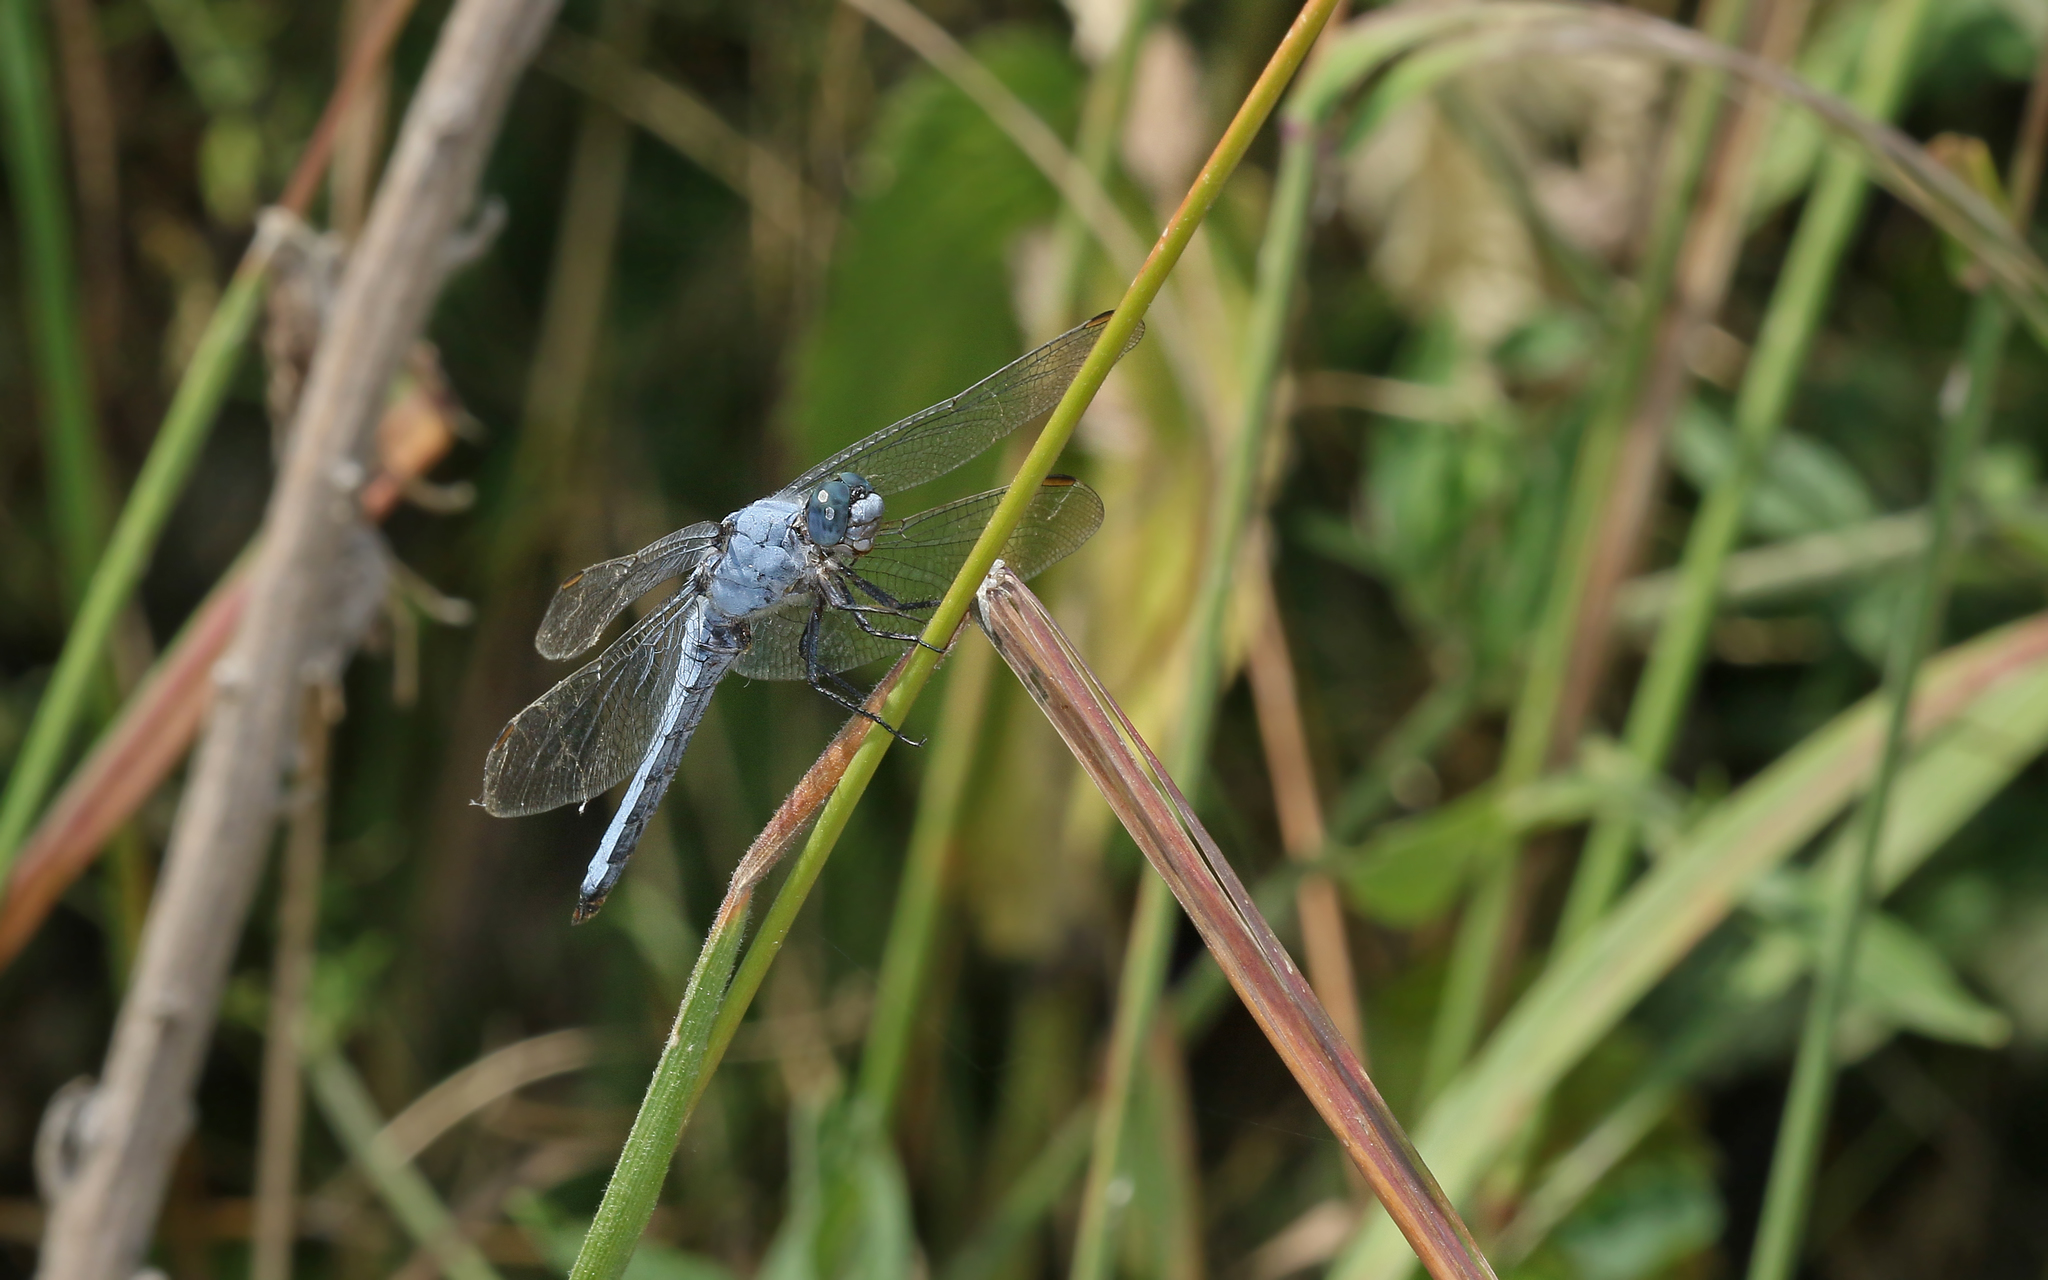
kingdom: Animalia
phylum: Arthropoda
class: Insecta
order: Odonata
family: Libellulidae
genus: Orthetrum
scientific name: Orthetrum brunneum
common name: Southern skimmer
